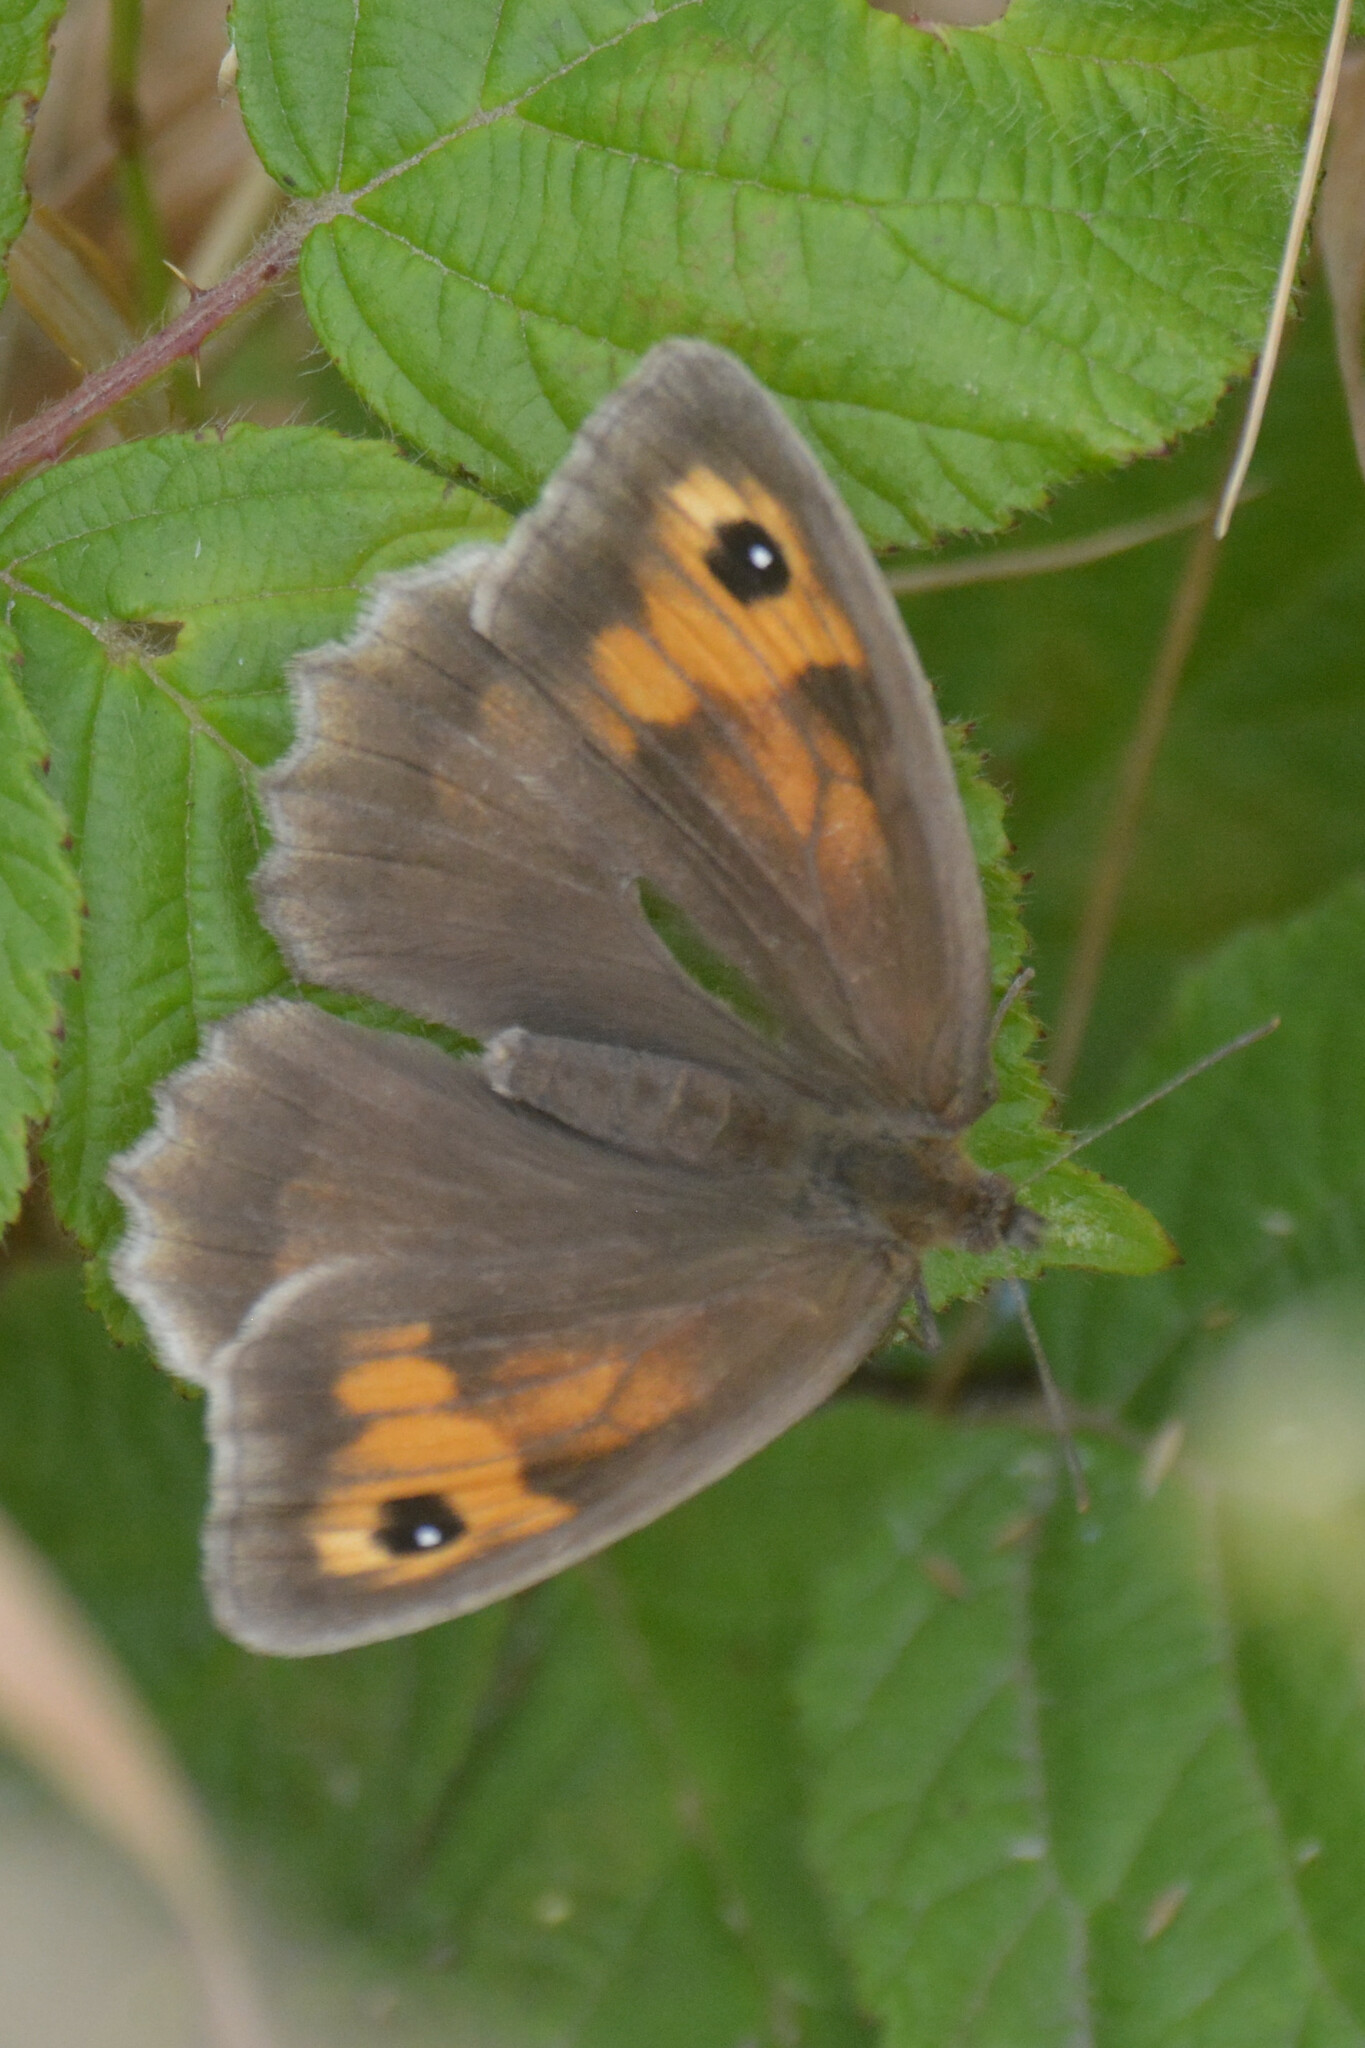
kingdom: Animalia
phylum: Arthropoda
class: Insecta
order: Lepidoptera
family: Nymphalidae
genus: Maniola
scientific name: Maniola jurtina
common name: Meadow brown
